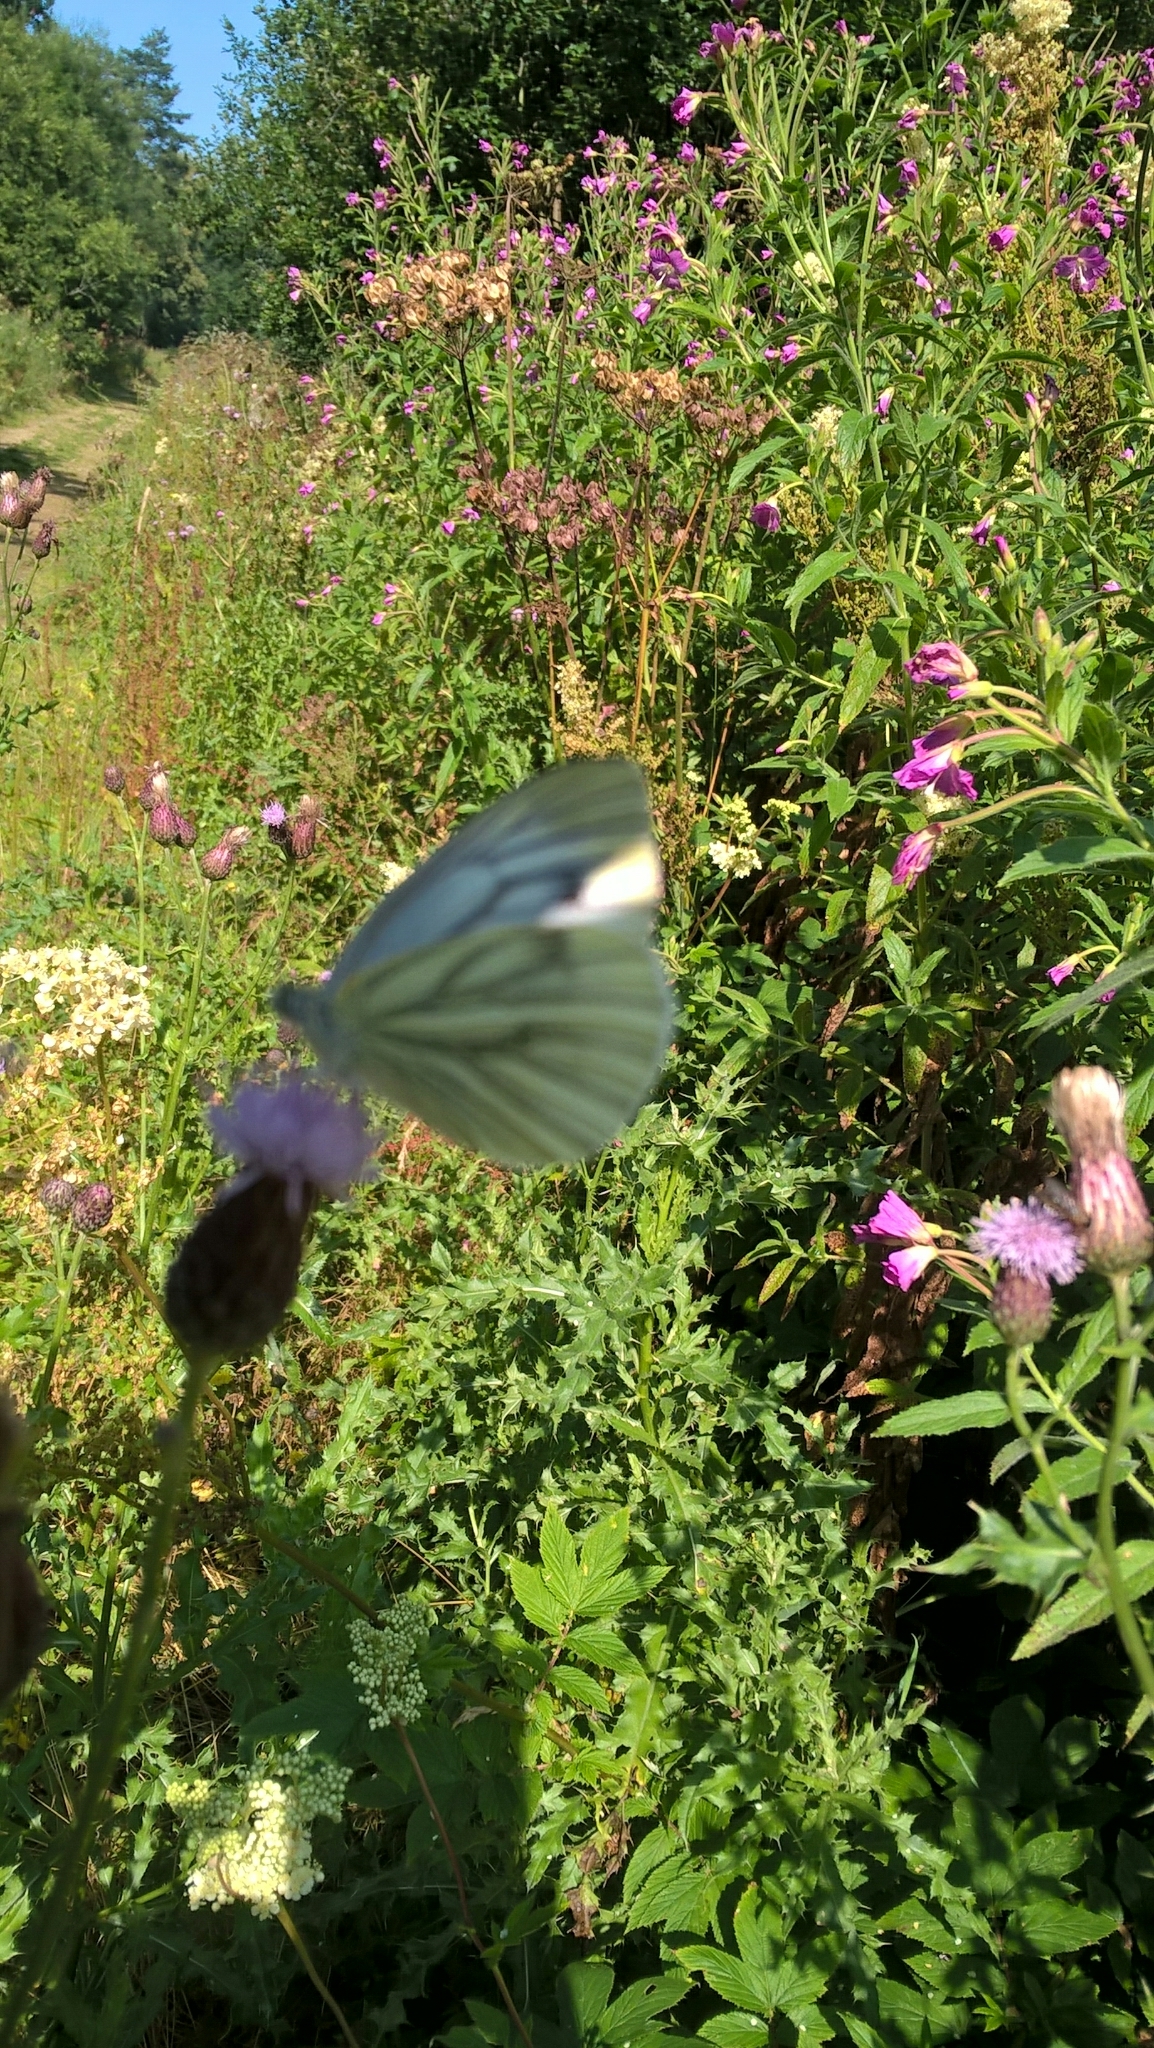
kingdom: Animalia
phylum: Arthropoda
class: Insecta
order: Lepidoptera
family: Pieridae
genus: Pieris
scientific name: Pieris napi
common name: Green-veined white
